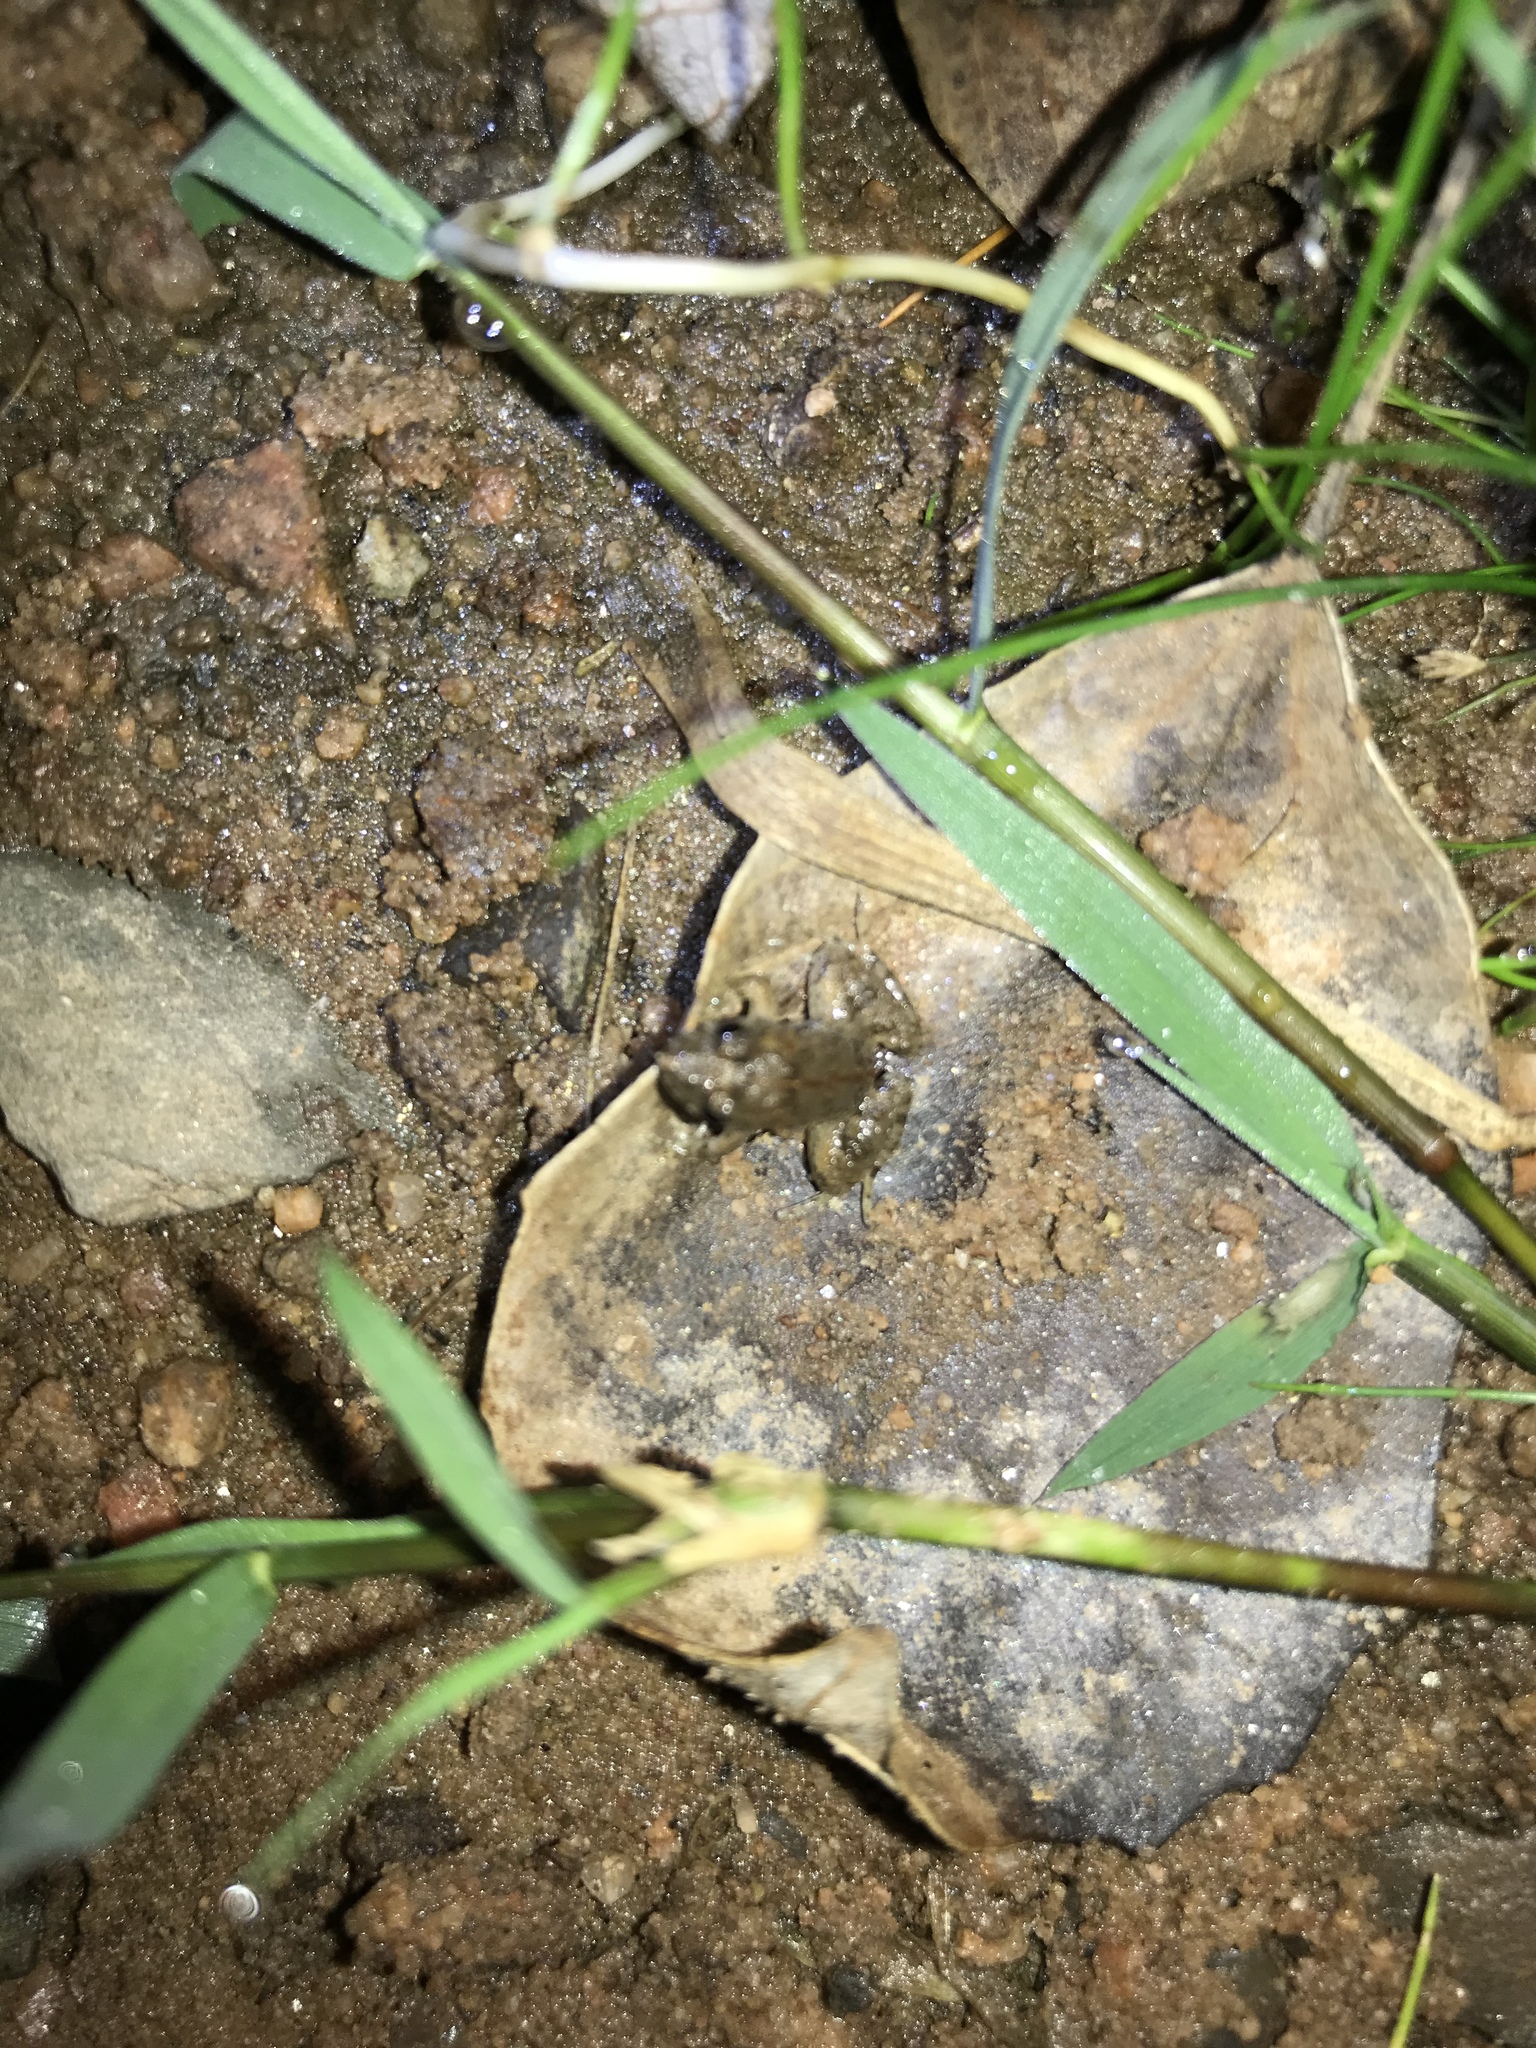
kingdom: Animalia
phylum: Chordata
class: Amphibia
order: Anura
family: Leptodactylidae
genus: Pseudopaludicola
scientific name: Pseudopaludicola falcipes
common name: Hensel’s swamp frog
